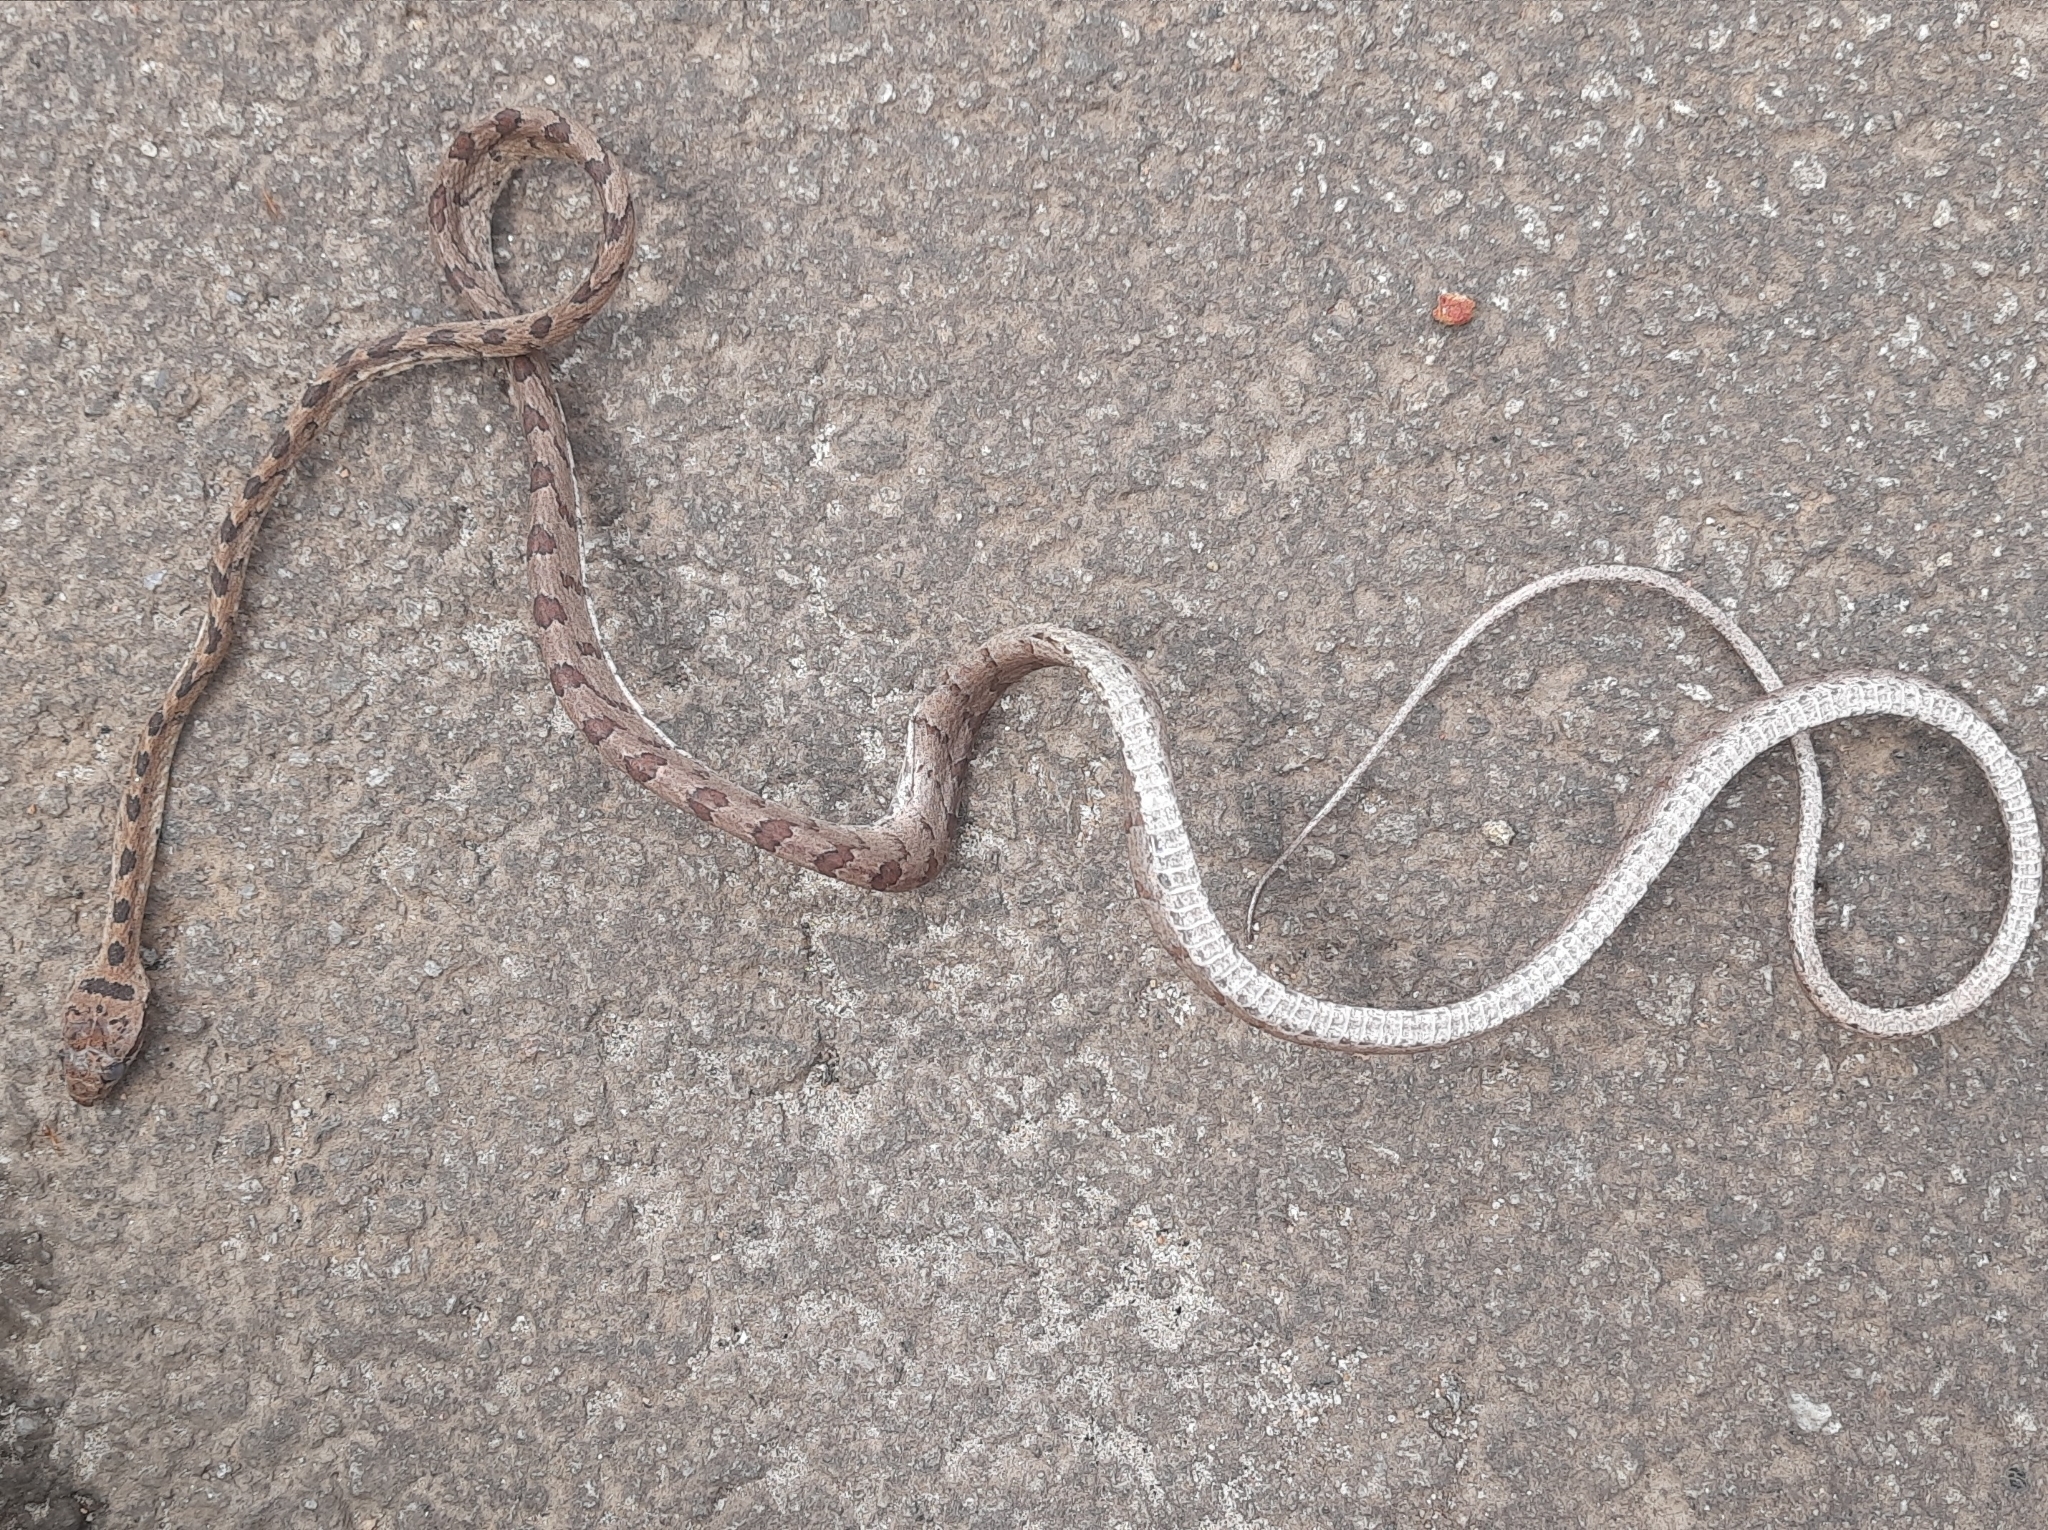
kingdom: Animalia
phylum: Chordata
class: Squamata
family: Colubridae
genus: Boiga
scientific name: Boiga nuchalis
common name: Collared catsnake
